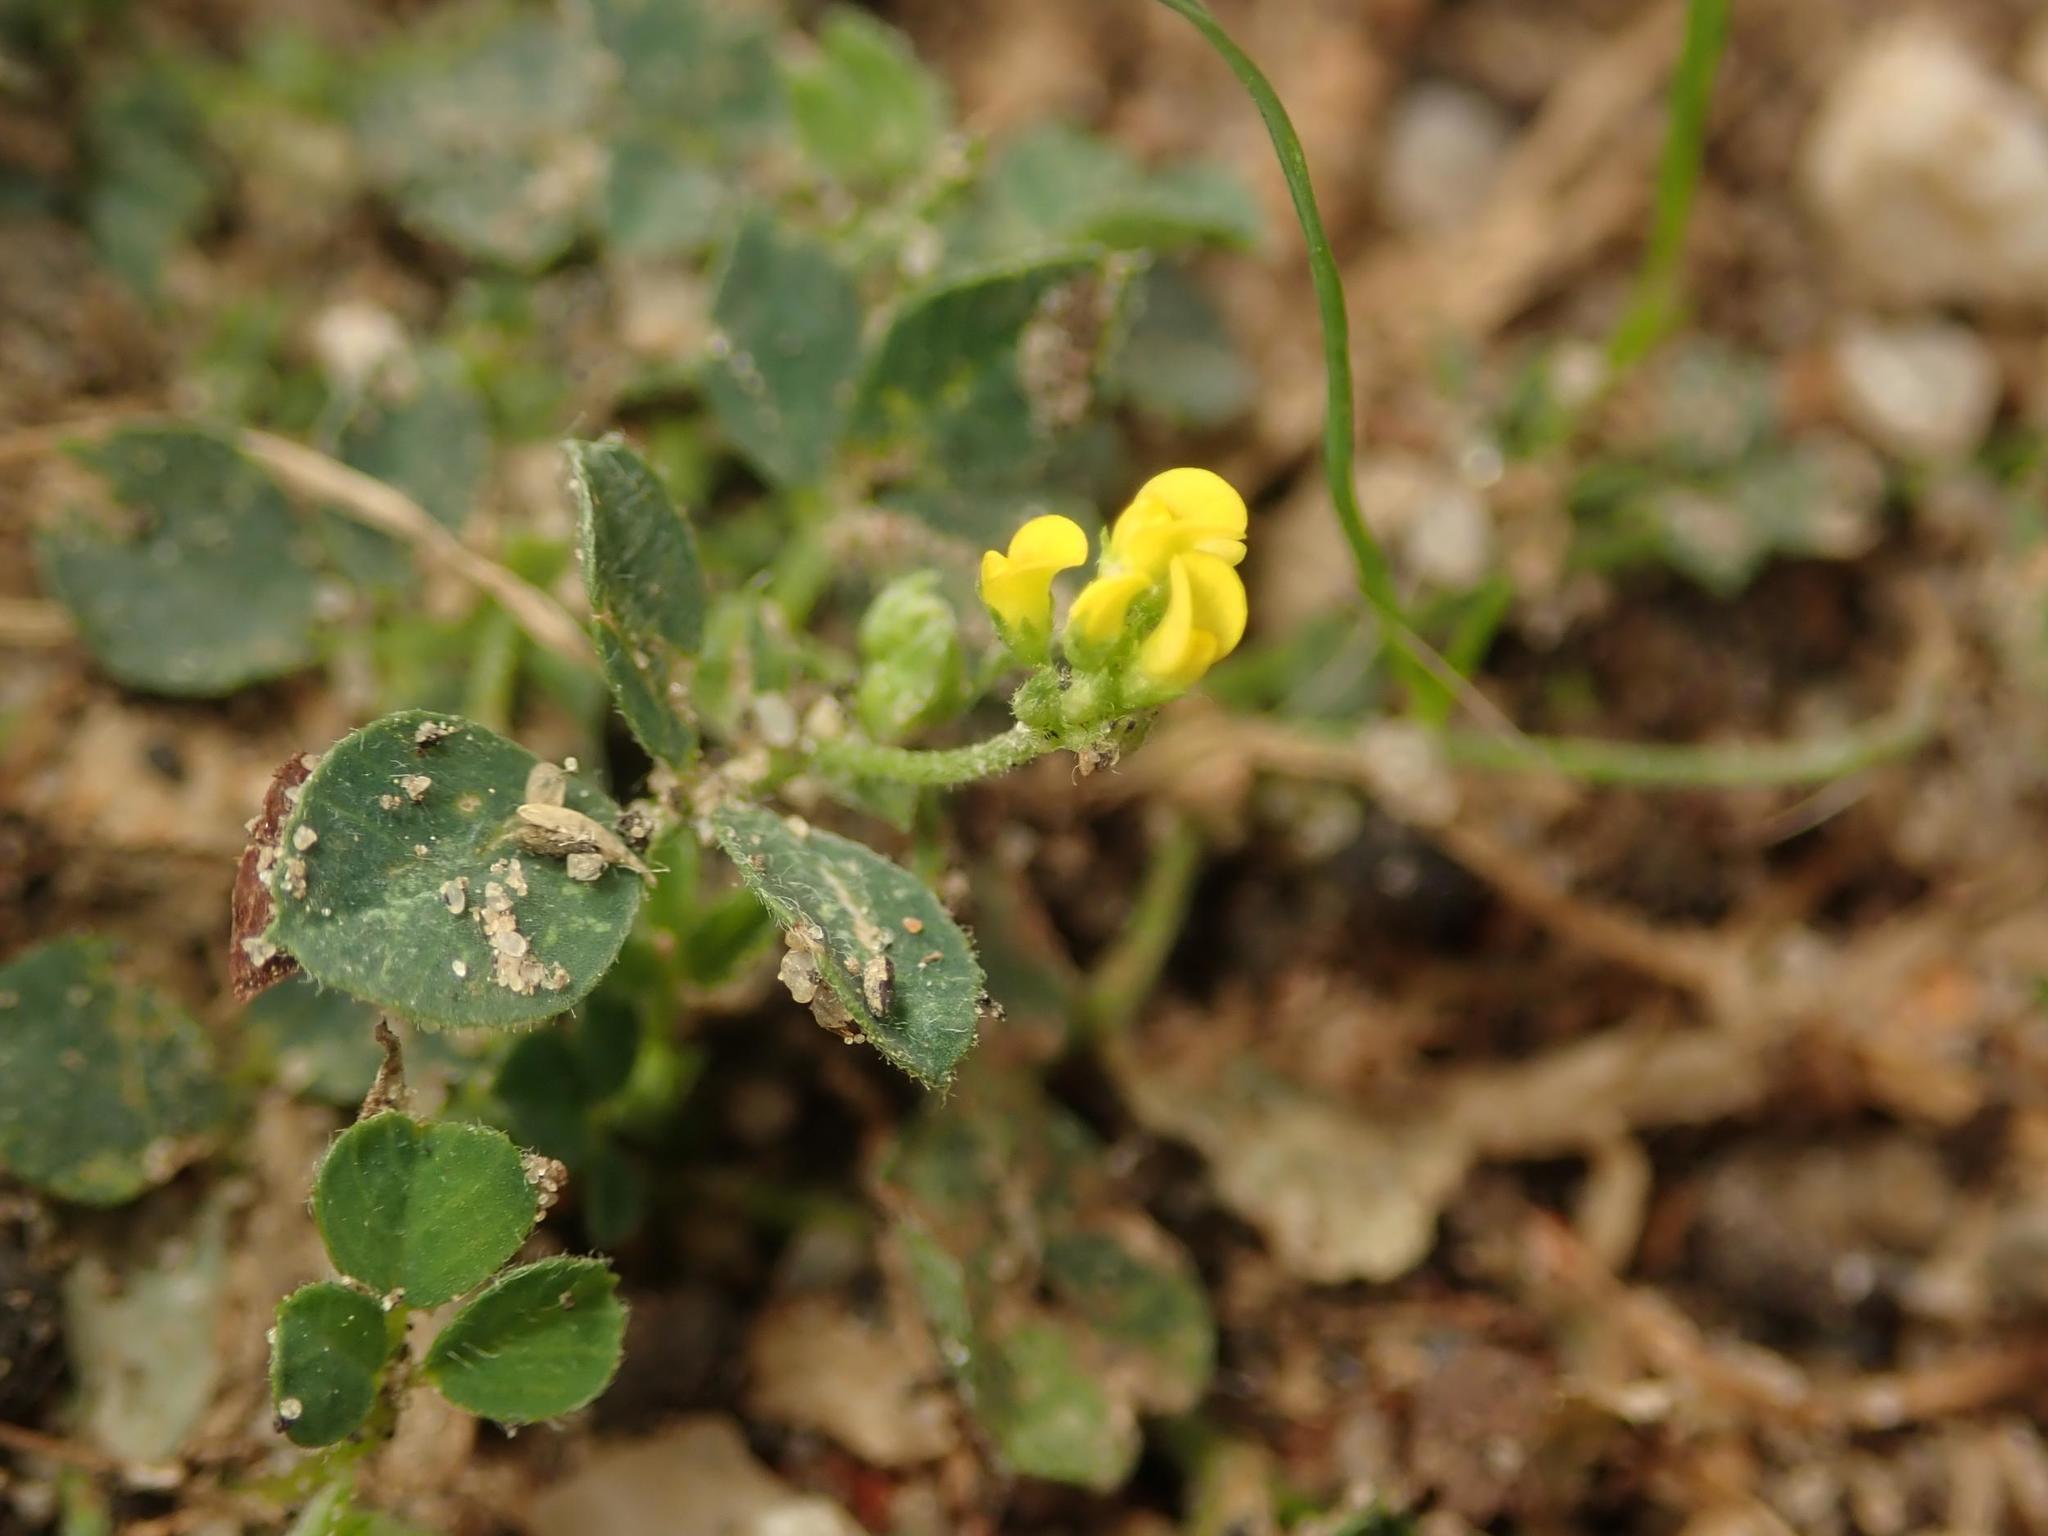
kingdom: Plantae
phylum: Tracheophyta
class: Magnoliopsida
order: Fabales
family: Fabaceae
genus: Medicago
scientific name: Medicago lupulina
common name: Black medick
